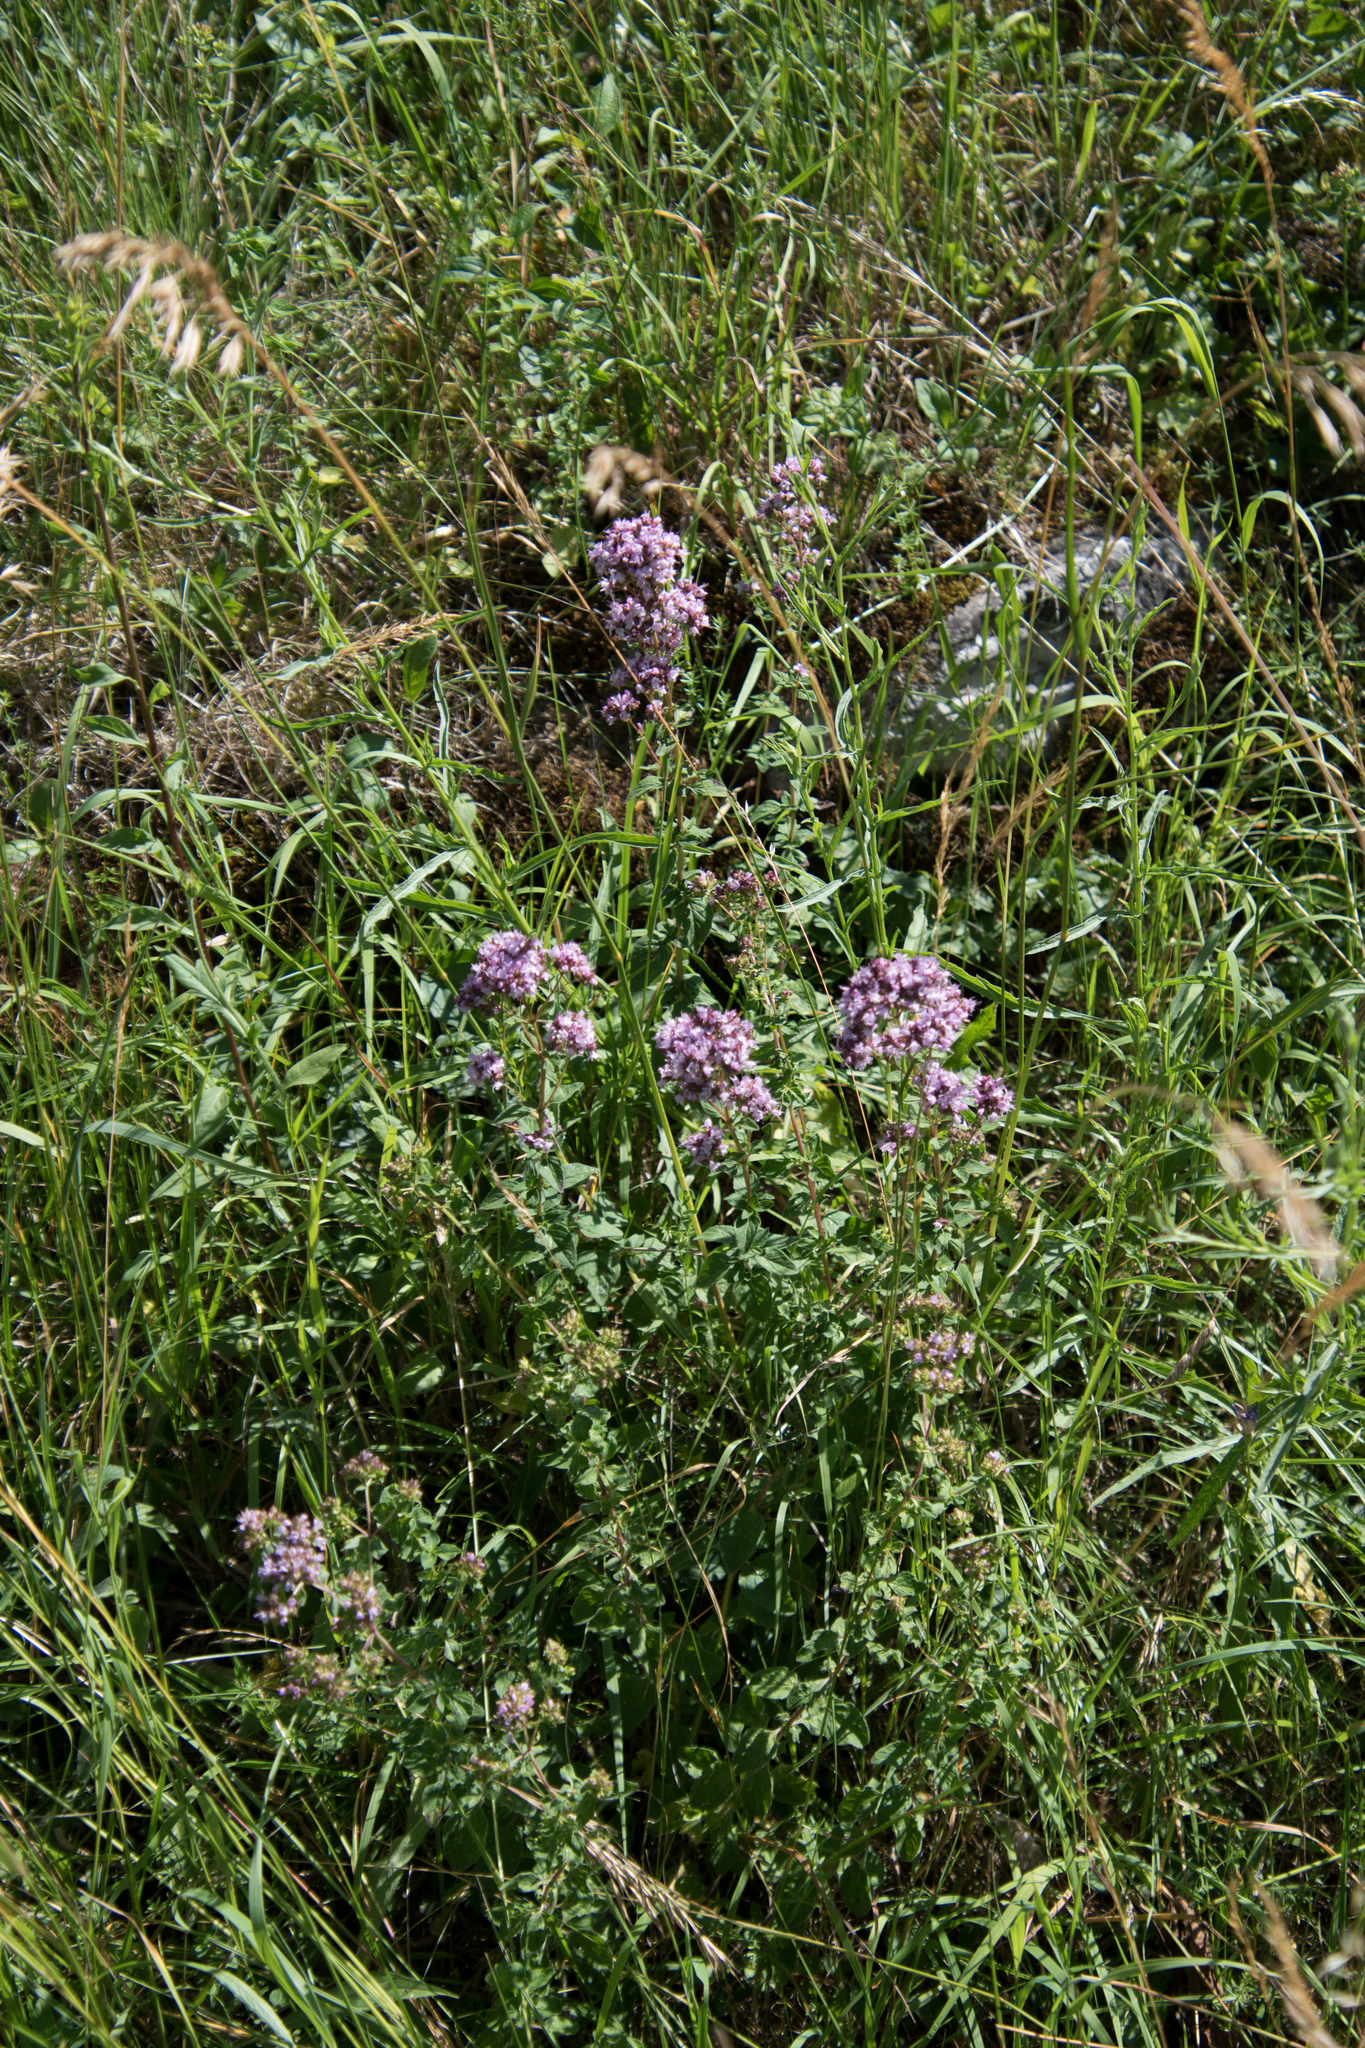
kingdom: Plantae
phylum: Tracheophyta
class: Magnoliopsida
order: Lamiales
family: Lamiaceae
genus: Origanum
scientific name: Origanum vulgare
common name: Wild marjoram
